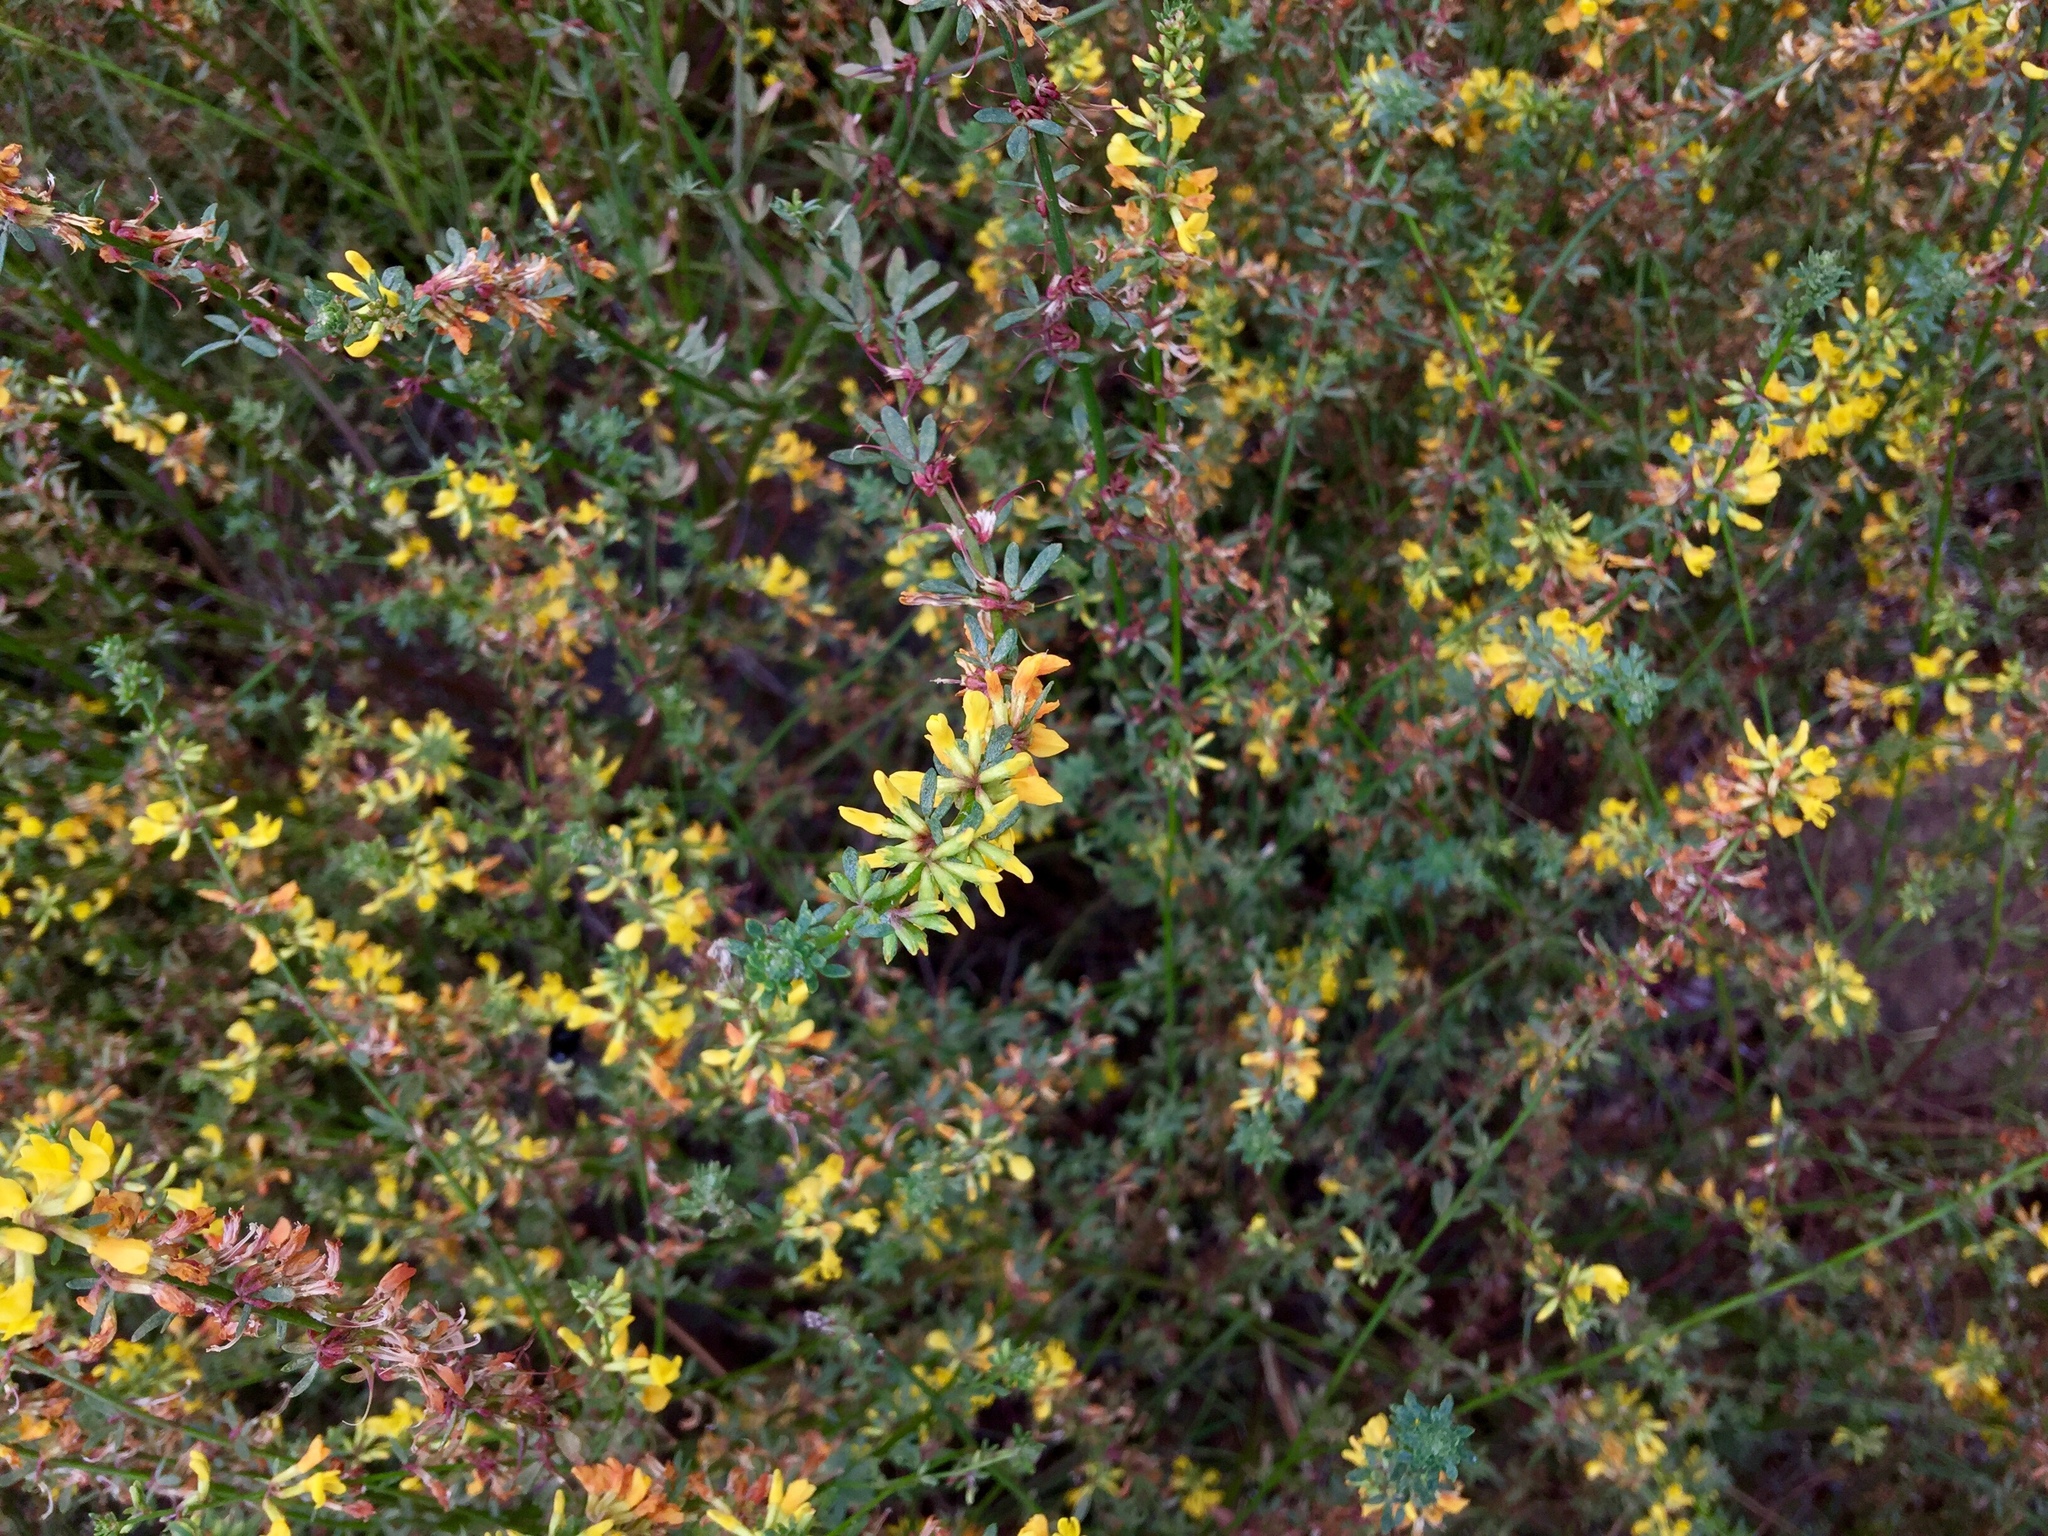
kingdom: Plantae
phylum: Tracheophyta
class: Magnoliopsida
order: Fabales
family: Fabaceae
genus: Acmispon
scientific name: Acmispon glaber
